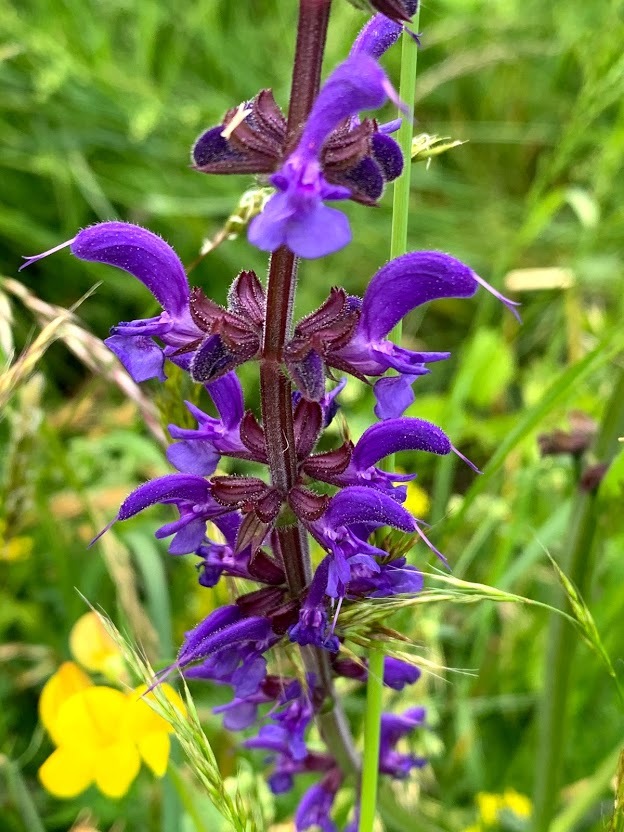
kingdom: Plantae
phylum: Tracheophyta
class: Magnoliopsida
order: Lamiales
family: Lamiaceae
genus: Salvia
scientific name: Salvia pratensis
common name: Meadow sage
